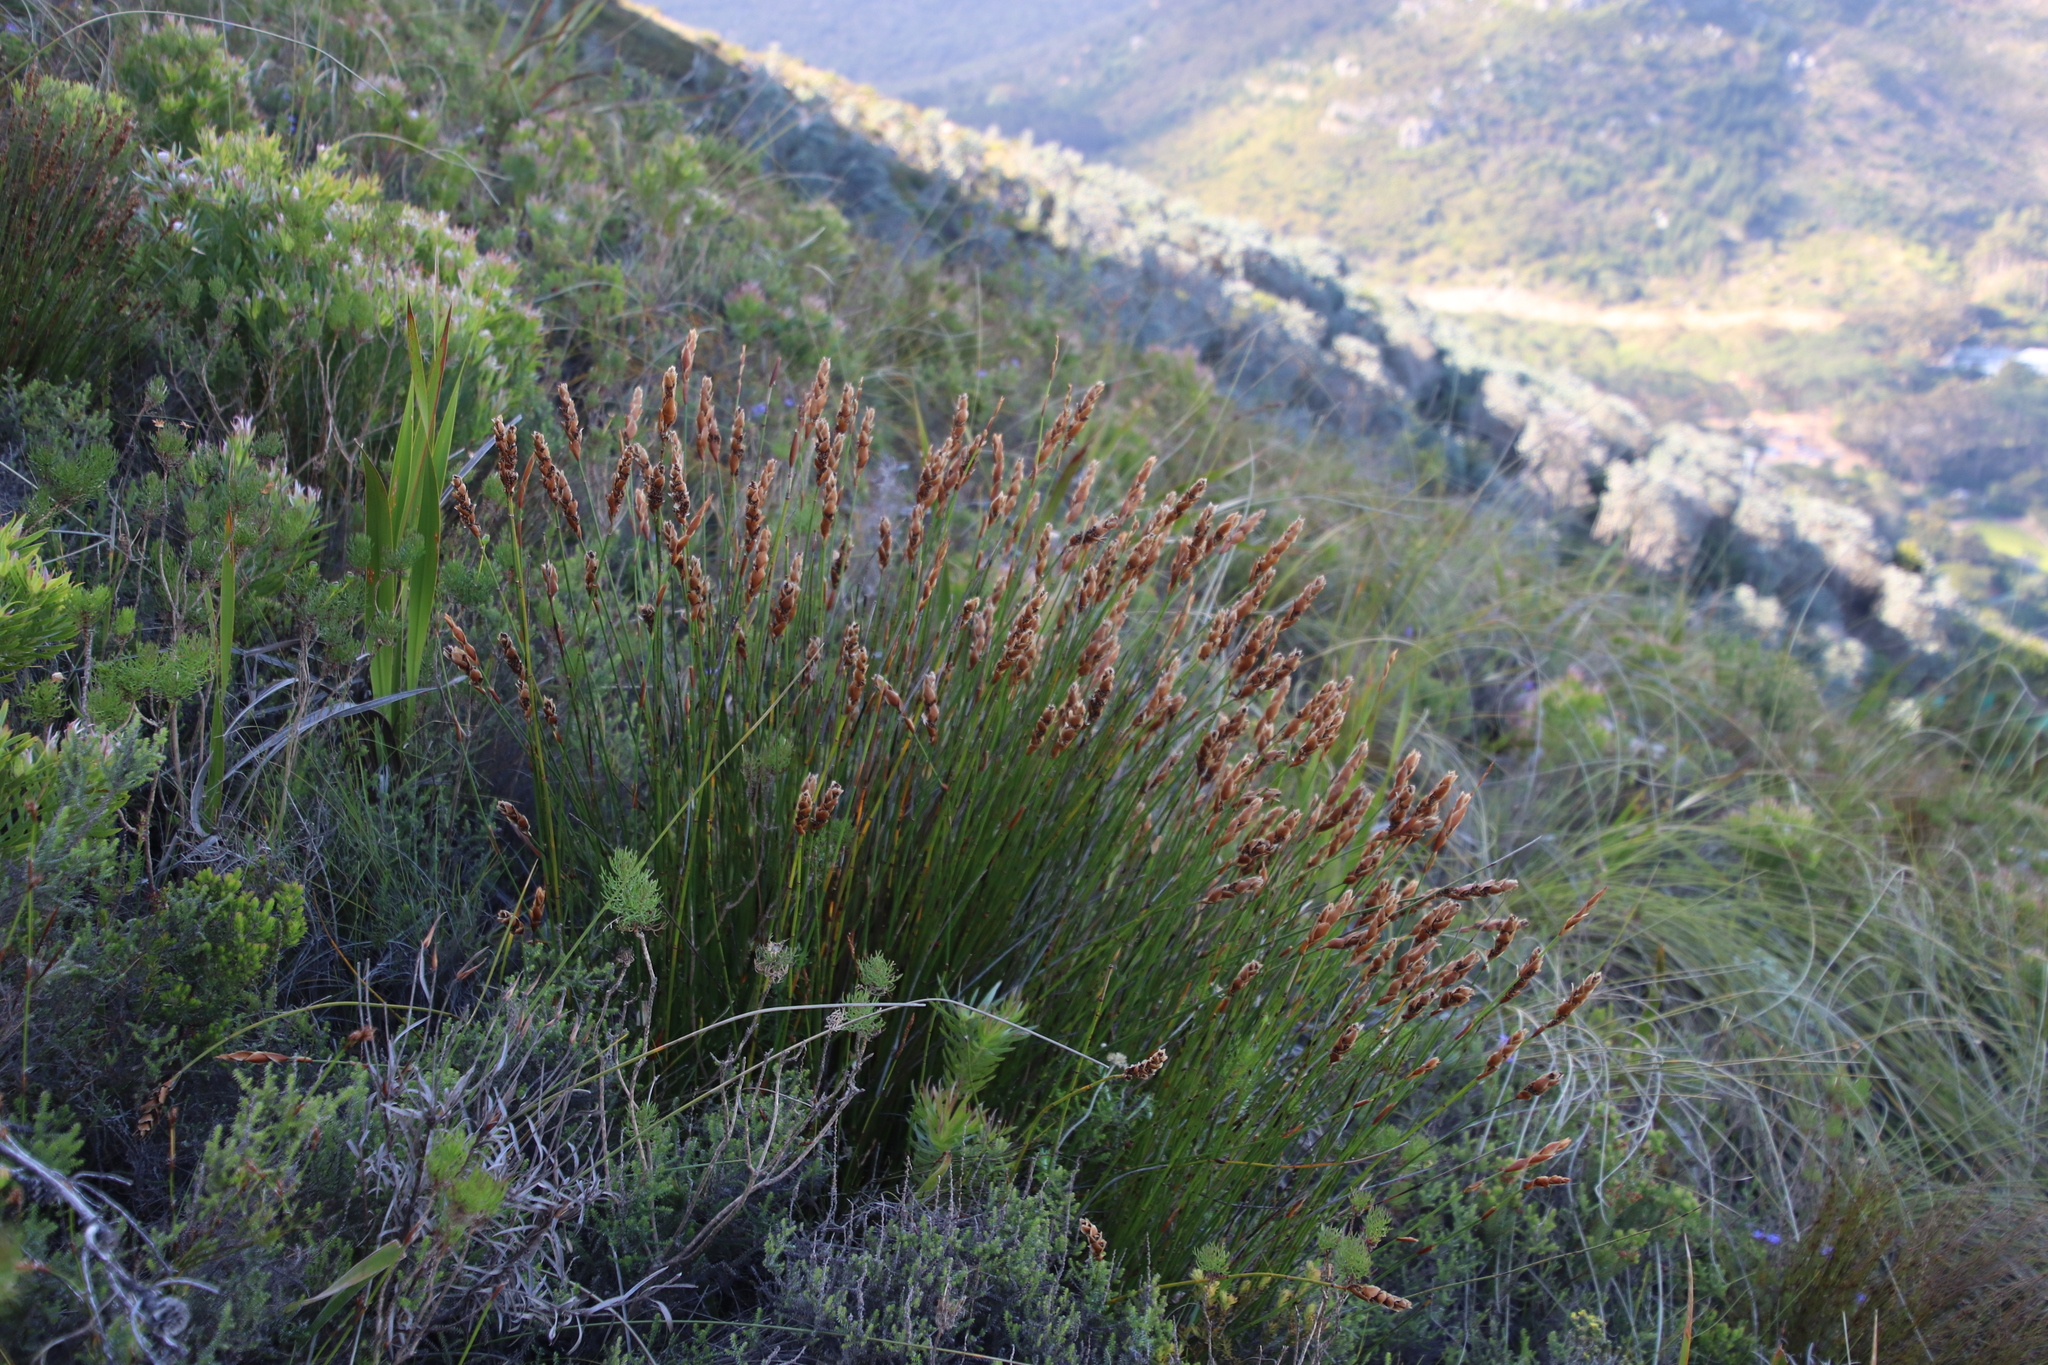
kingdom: Plantae
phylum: Tracheophyta
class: Liliopsida
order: Poales
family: Restionaceae
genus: Elegia
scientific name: Elegia racemosa
